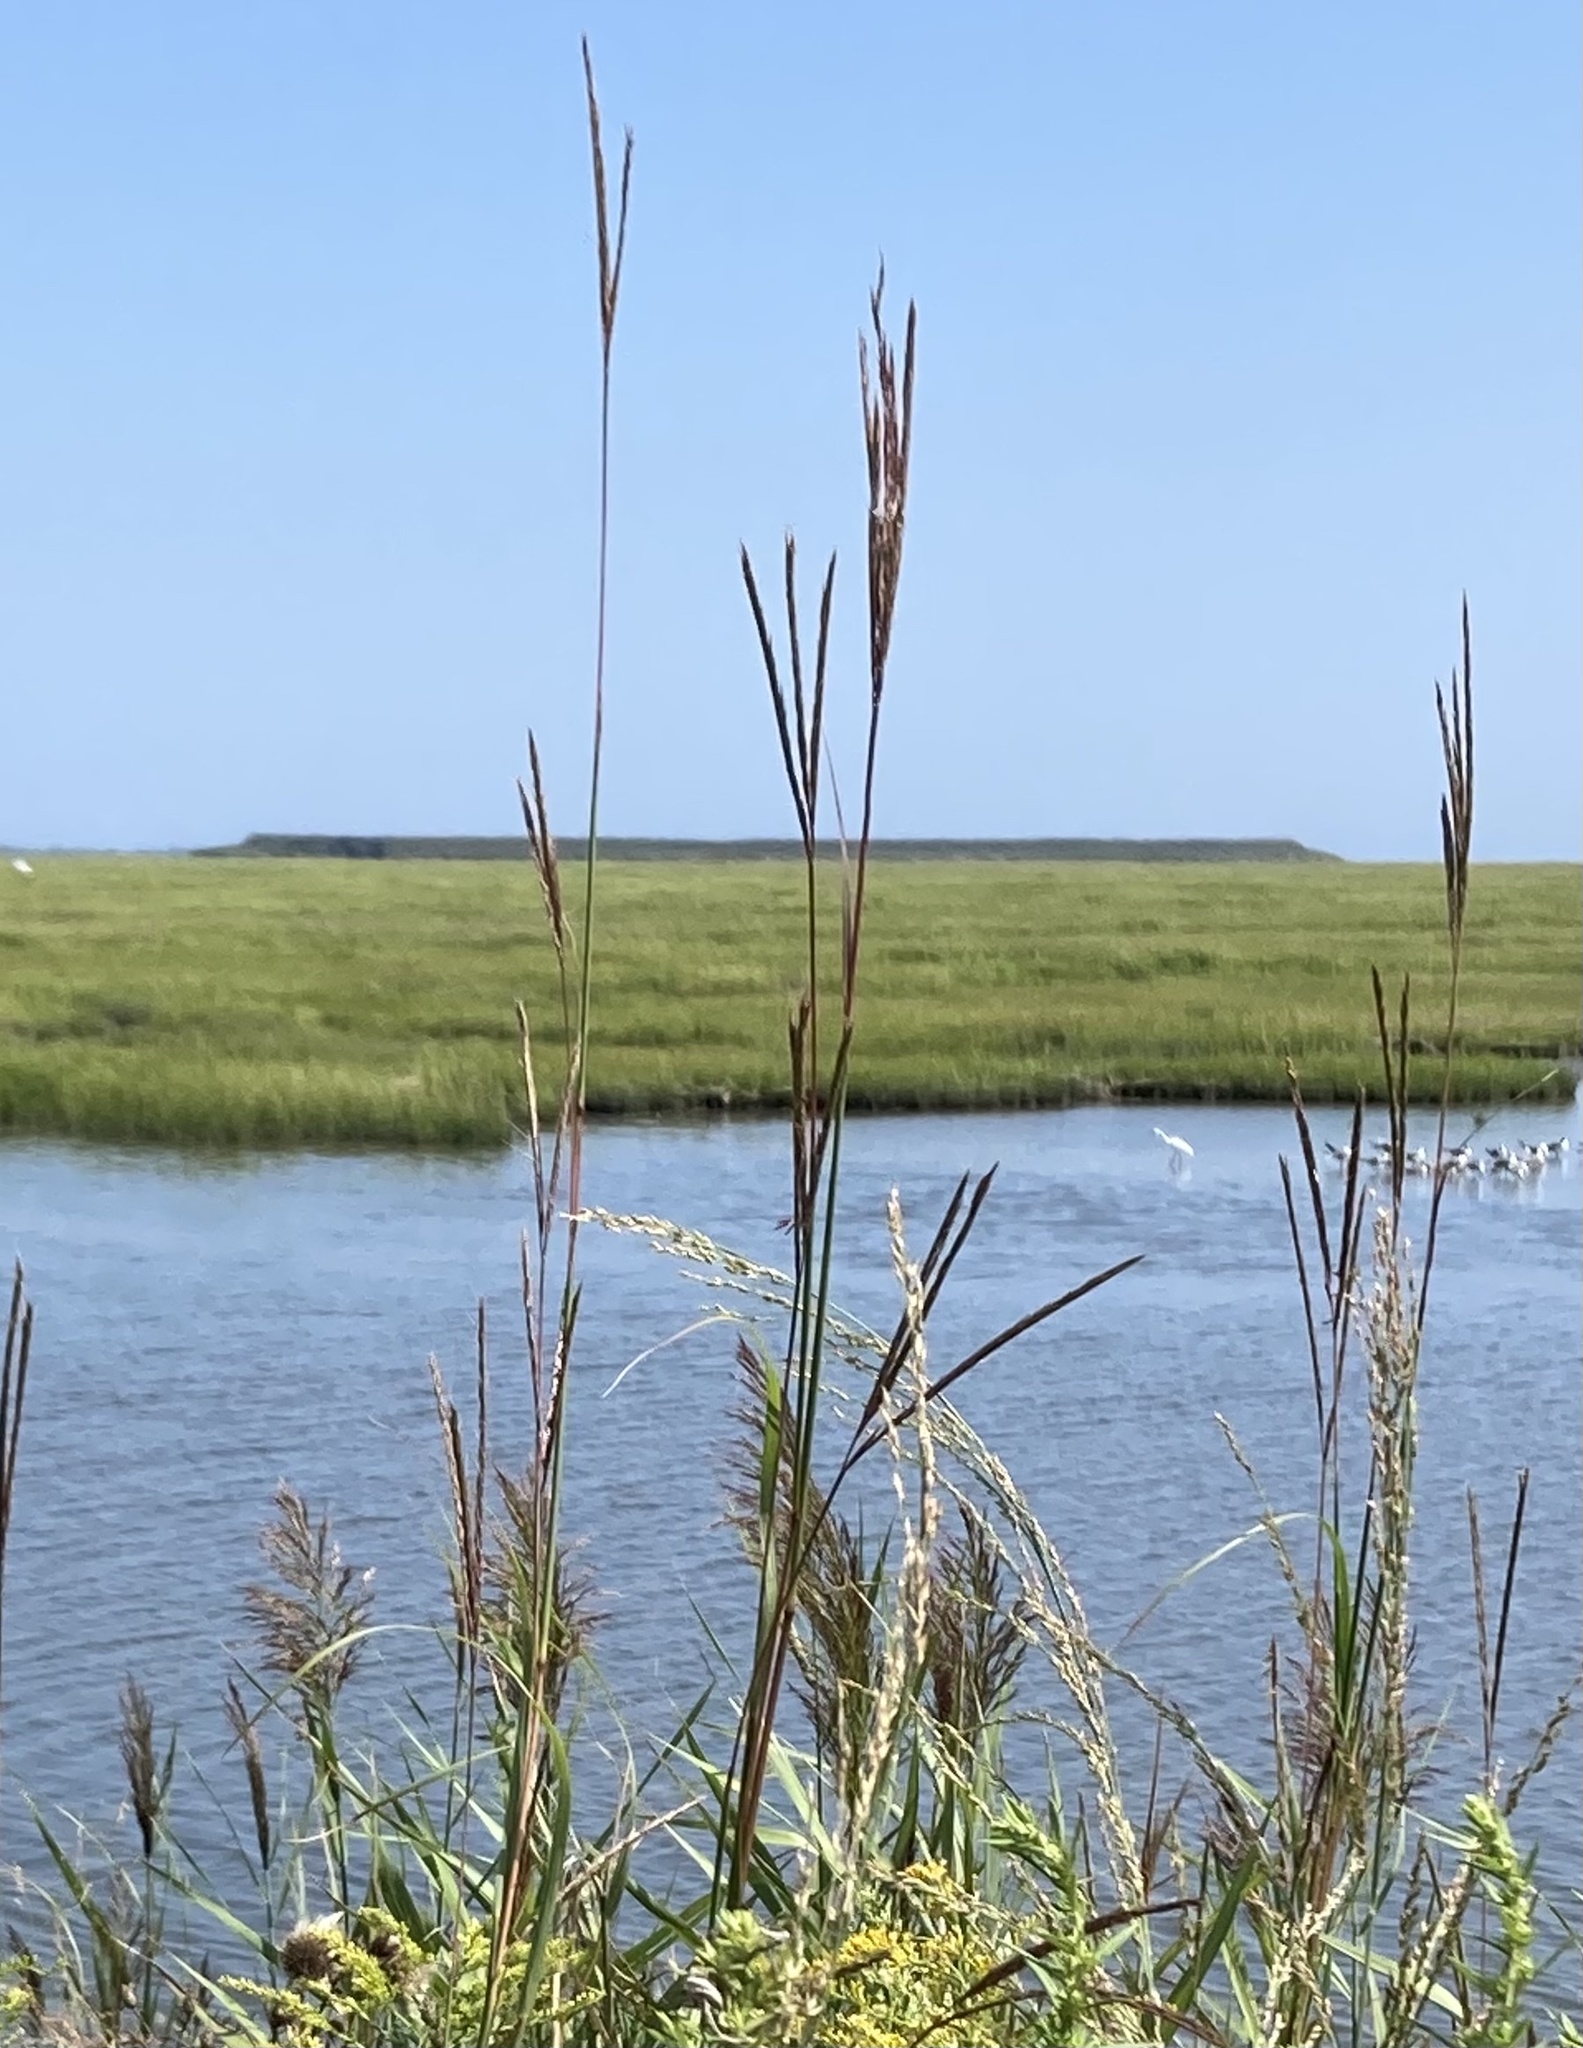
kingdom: Plantae
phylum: Tracheophyta
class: Liliopsida
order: Poales
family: Poaceae
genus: Andropogon
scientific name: Andropogon gerardi
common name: Big bluestem
